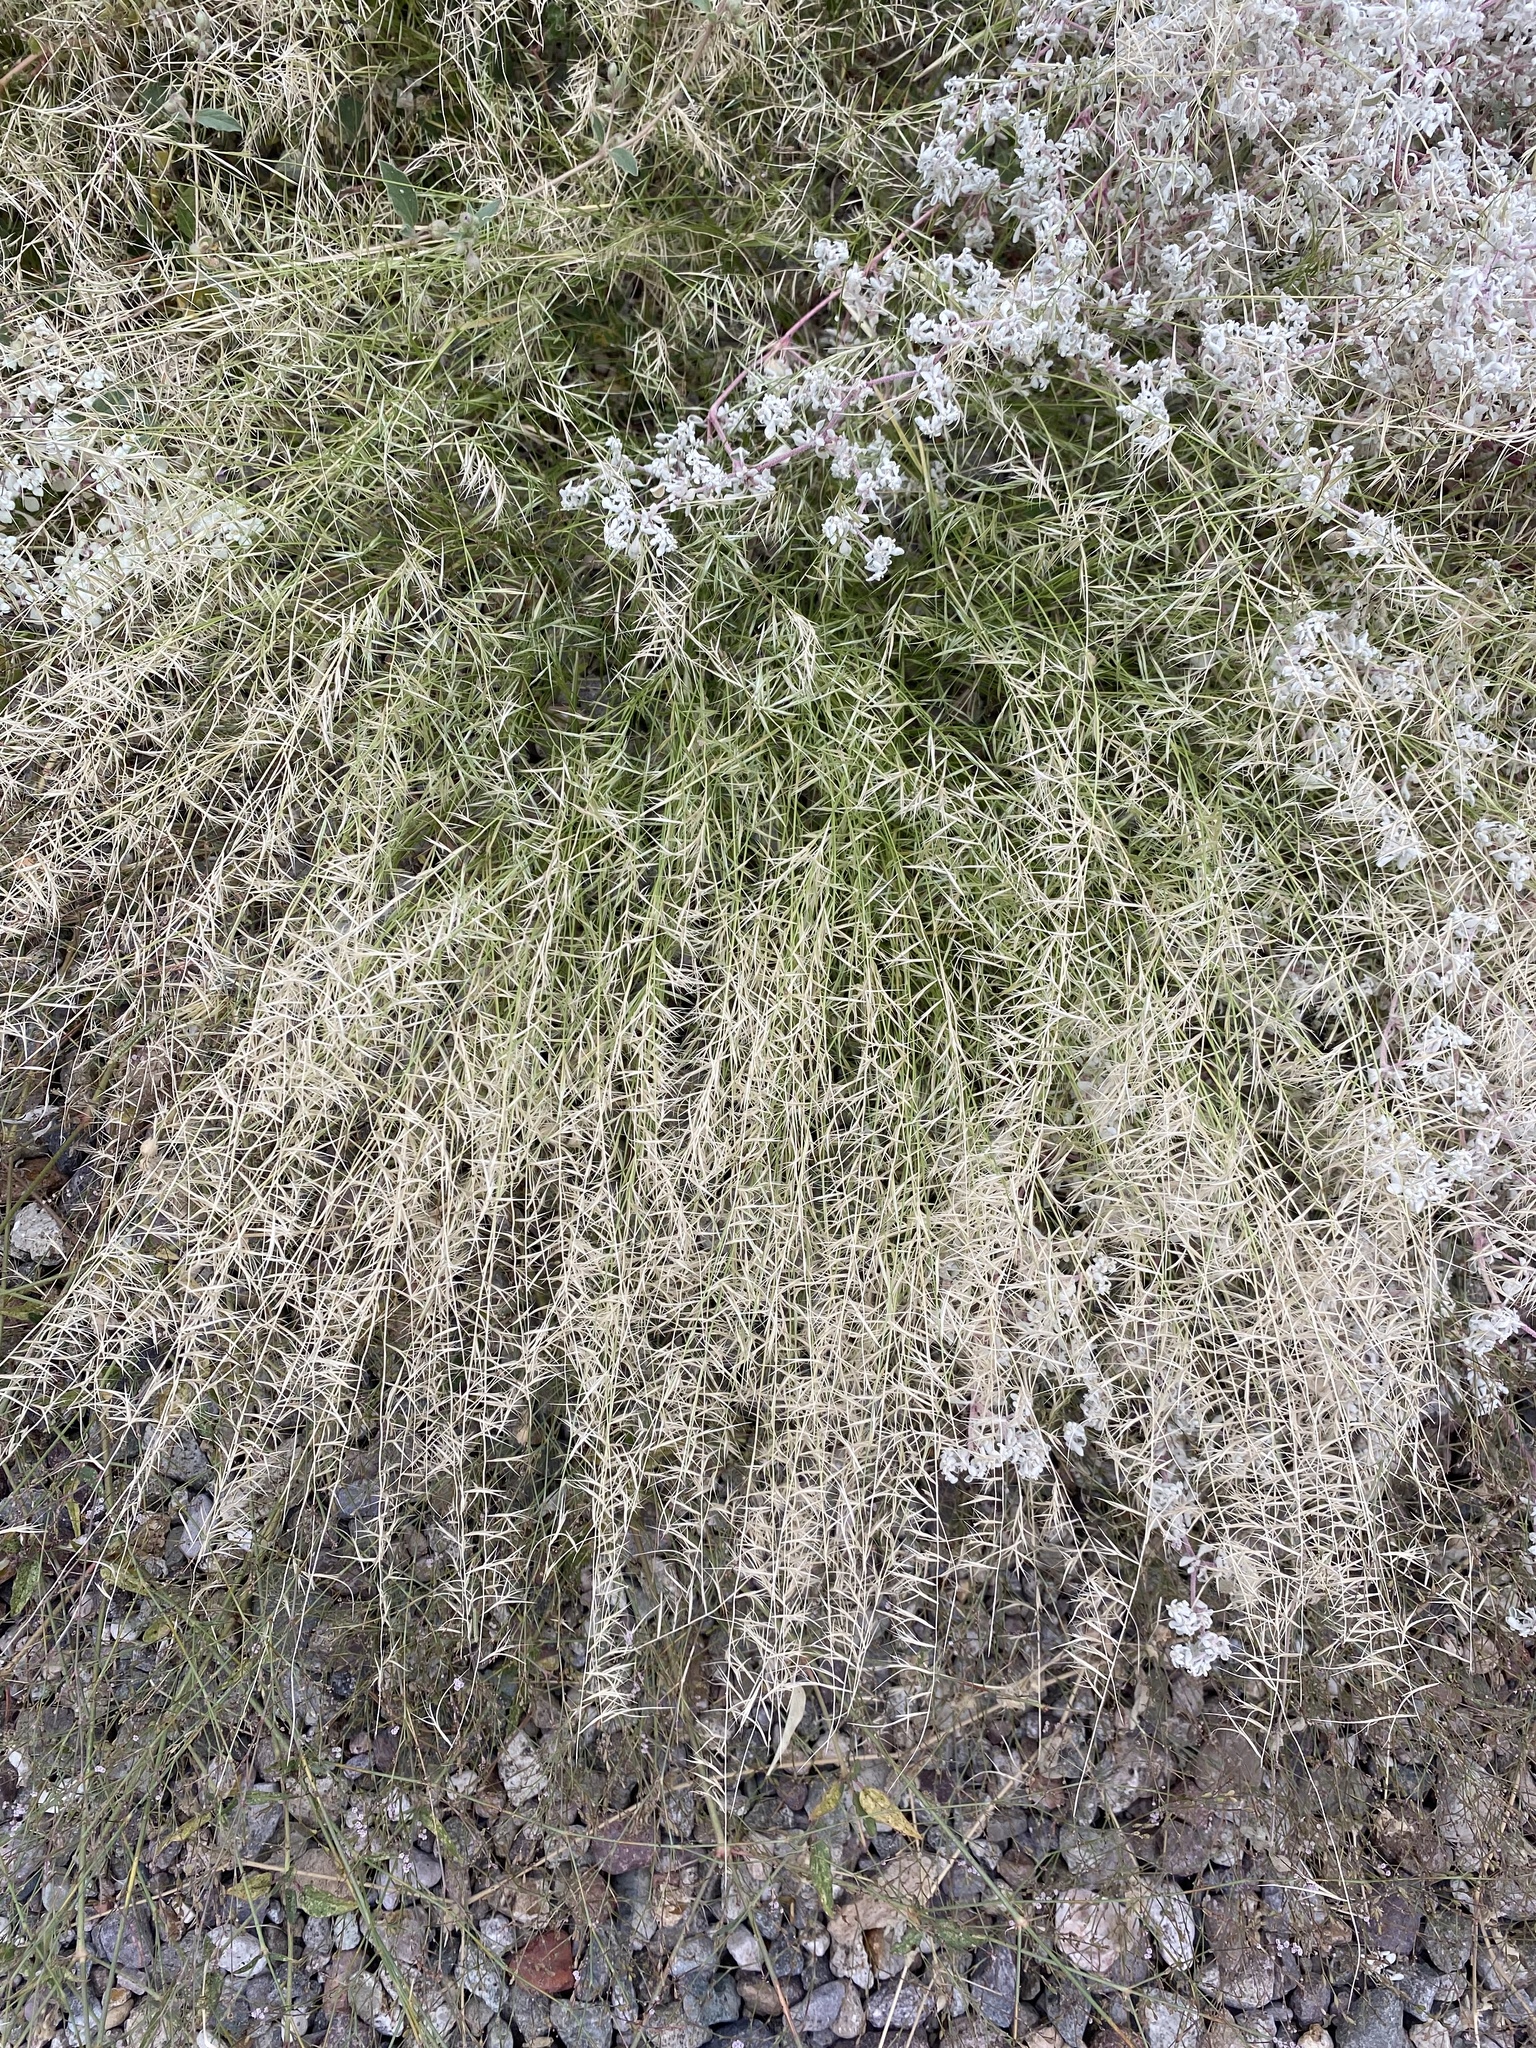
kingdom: Plantae
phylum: Tracheophyta
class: Liliopsida
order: Poales
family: Poaceae
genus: Bouteloua
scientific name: Bouteloua aristidoides
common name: Needle grama
